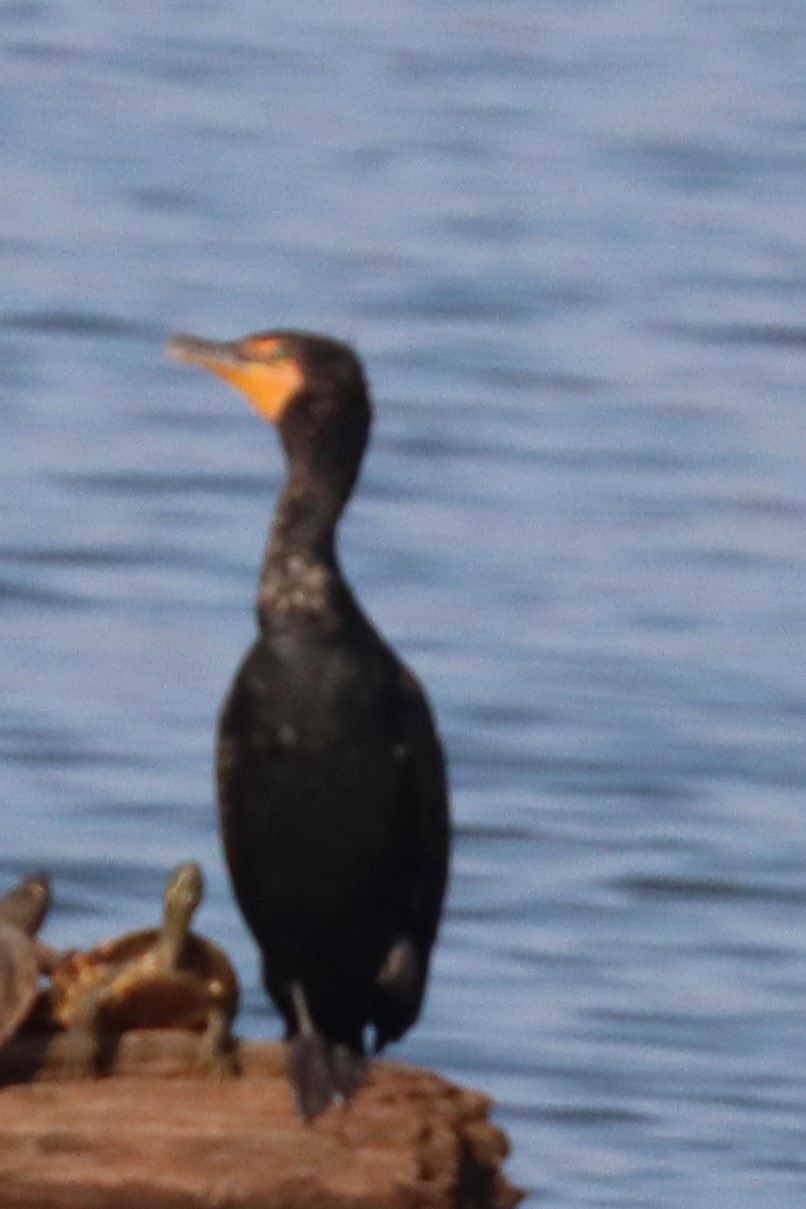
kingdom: Animalia
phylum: Chordata
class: Aves
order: Suliformes
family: Phalacrocoracidae
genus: Phalacrocorax
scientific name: Phalacrocorax auritus
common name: Double-crested cormorant
